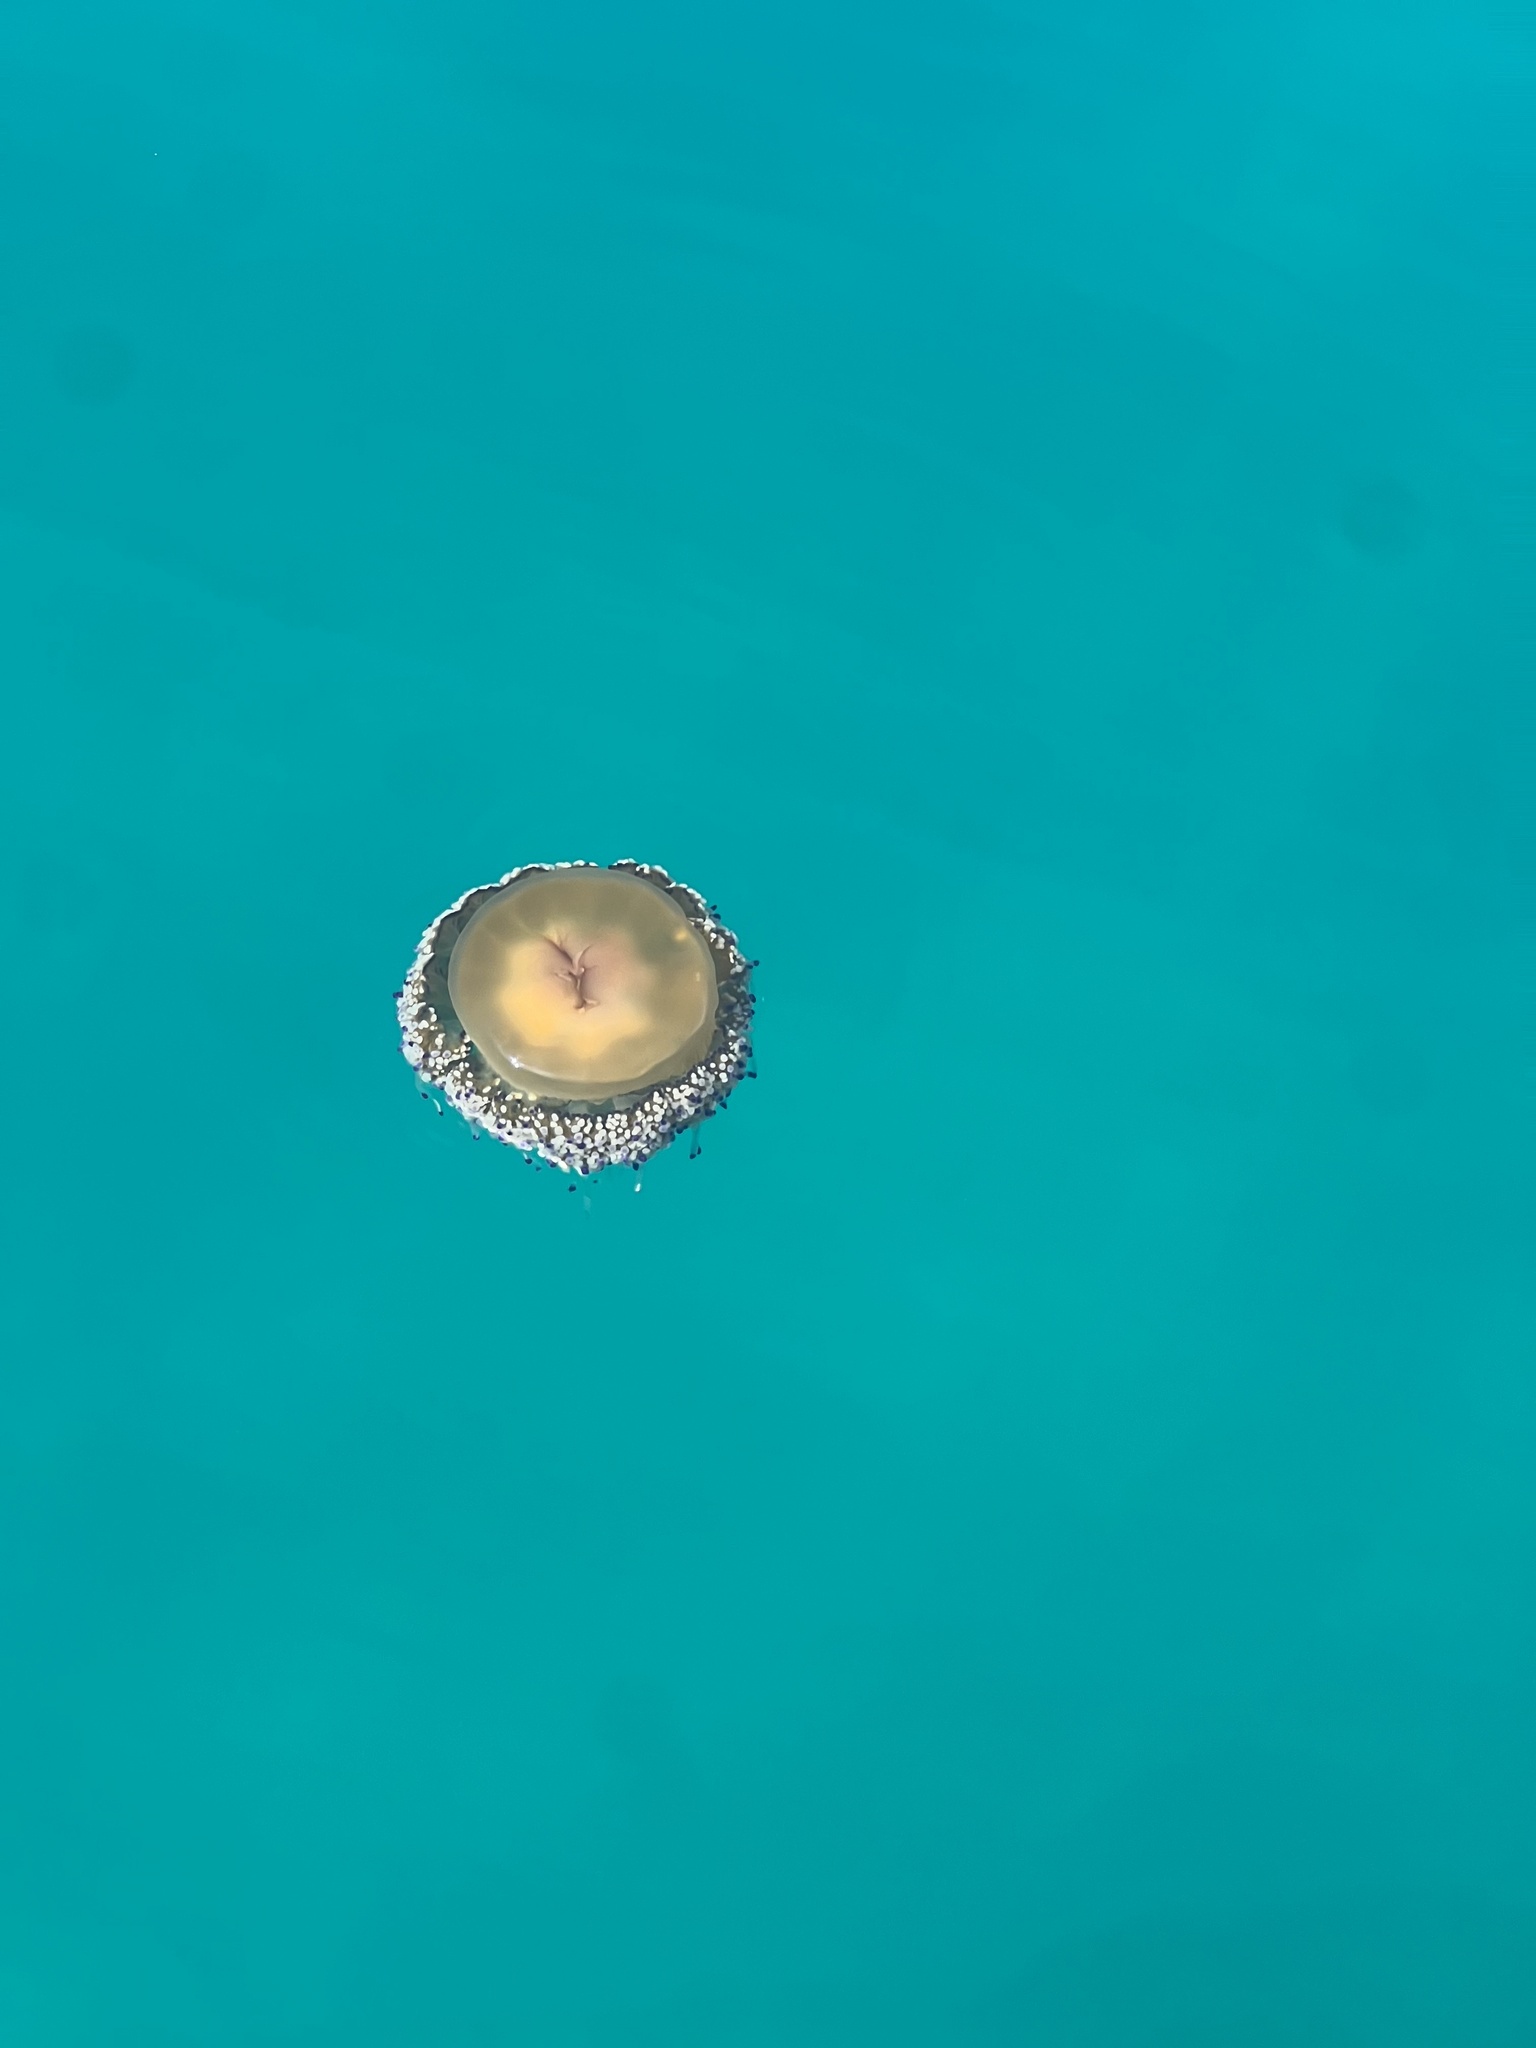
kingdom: Animalia
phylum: Cnidaria
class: Scyphozoa
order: Rhizostomeae
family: Cepheidae
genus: Cotylorhiza
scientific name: Cotylorhiza tuberculata
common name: Mediterranean jelly
